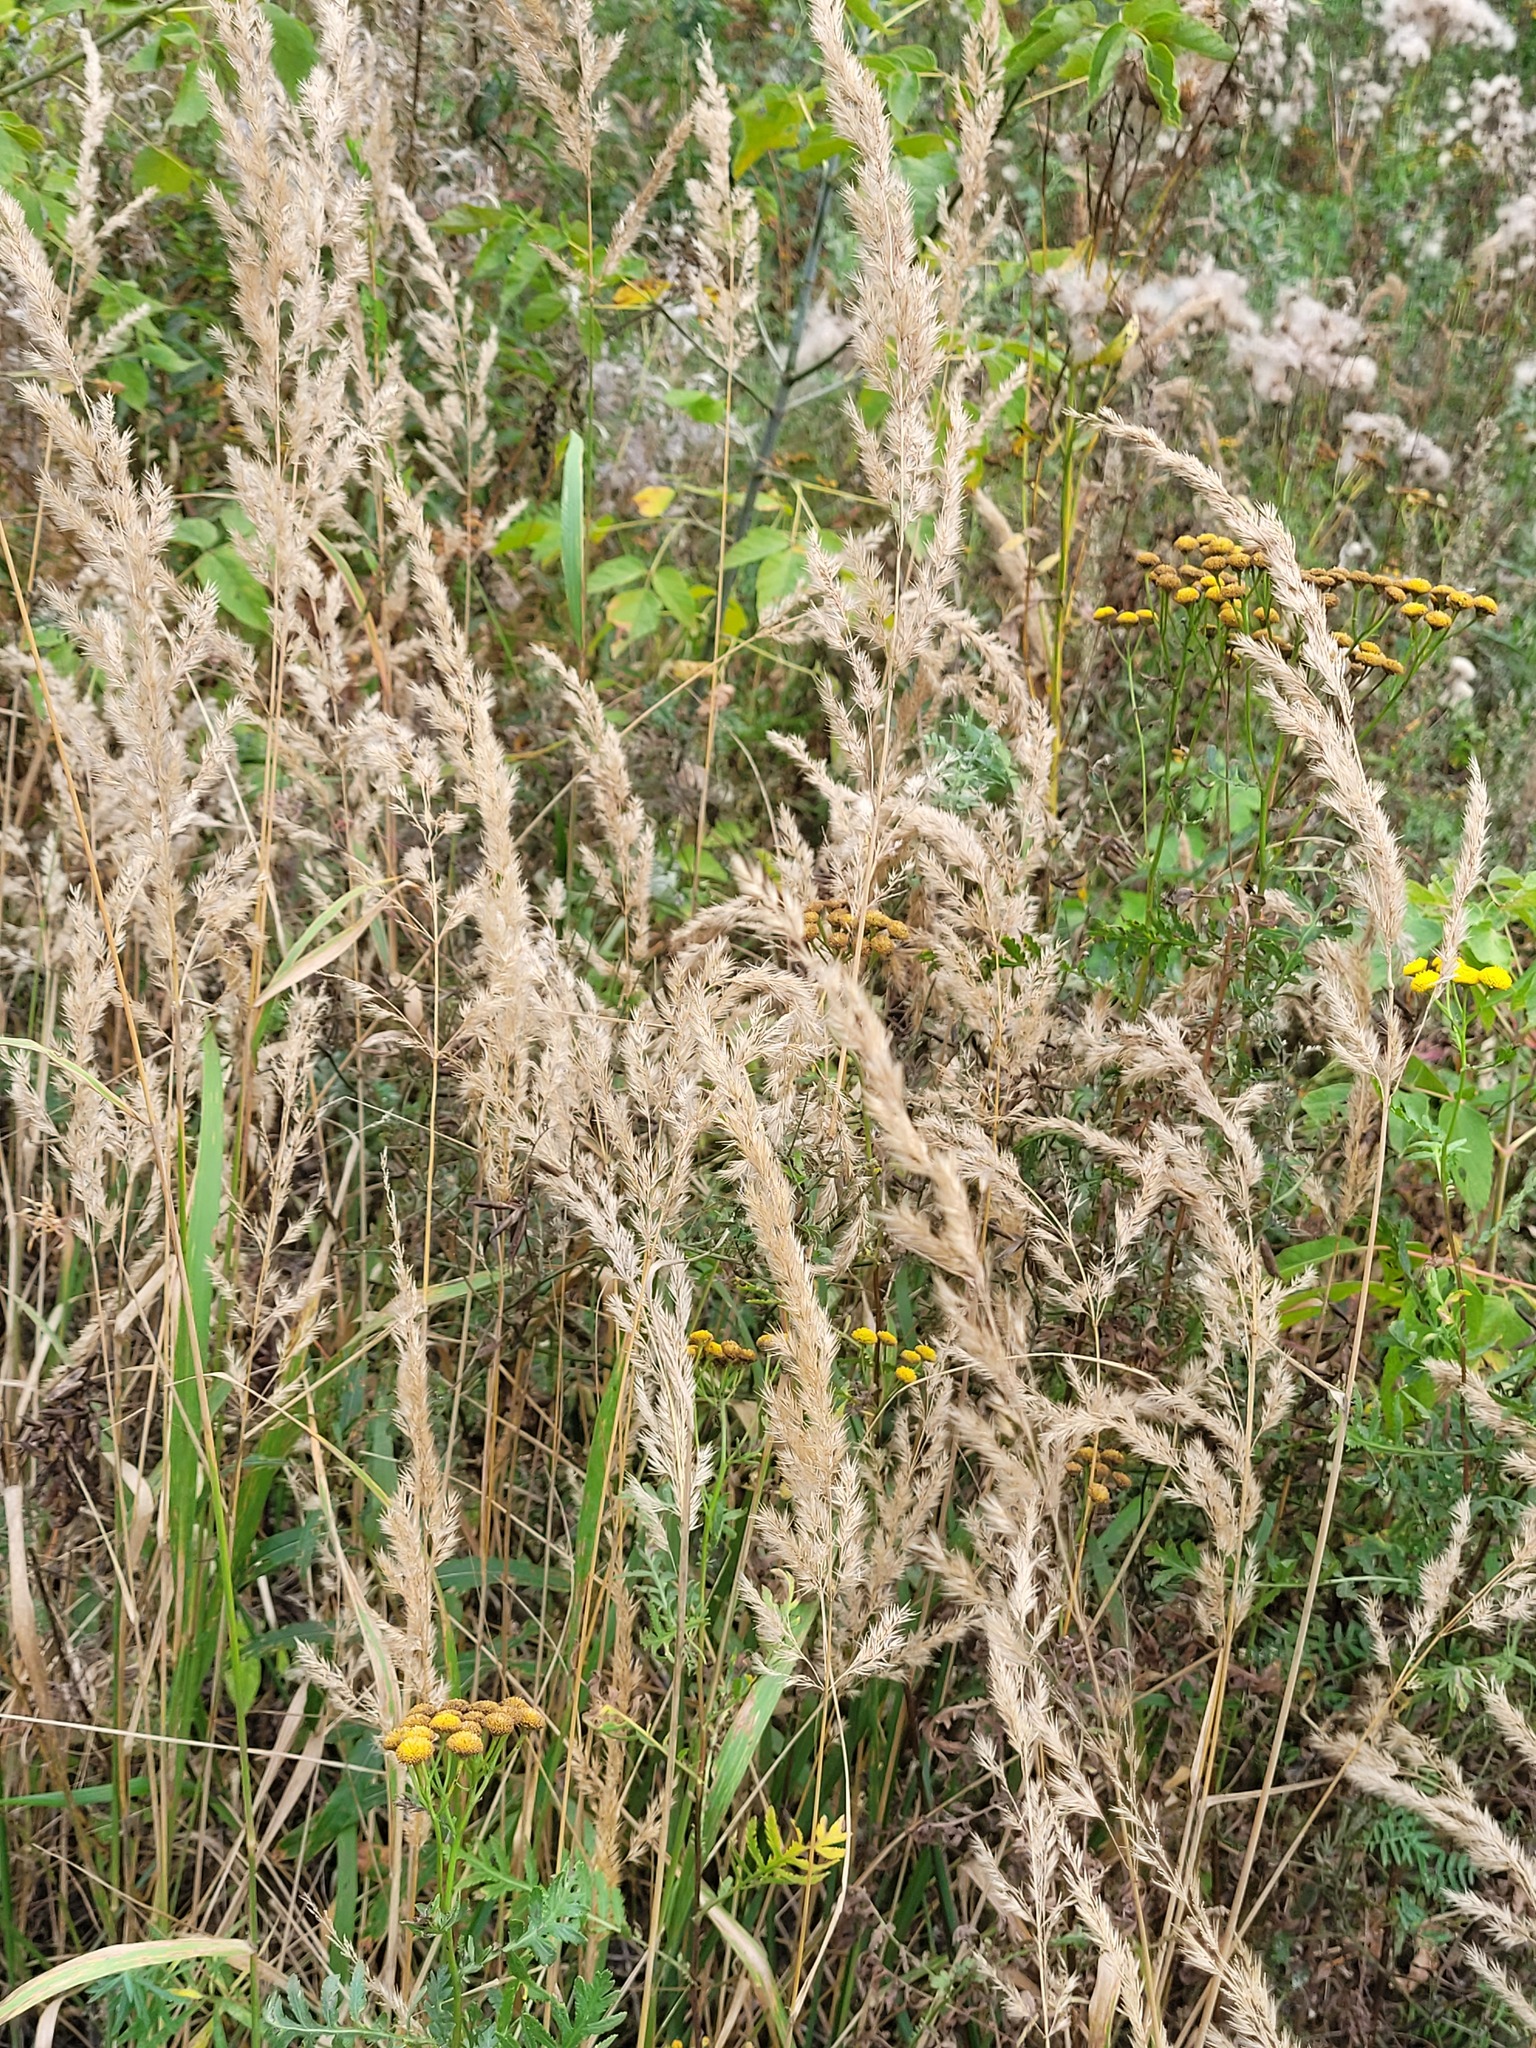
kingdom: Plantae
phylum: Tracheophyta
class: Liliopsida
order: Poales
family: Poaceae
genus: Calamagrostis
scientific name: Calamagrostis epigejos
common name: Wood small-reed
